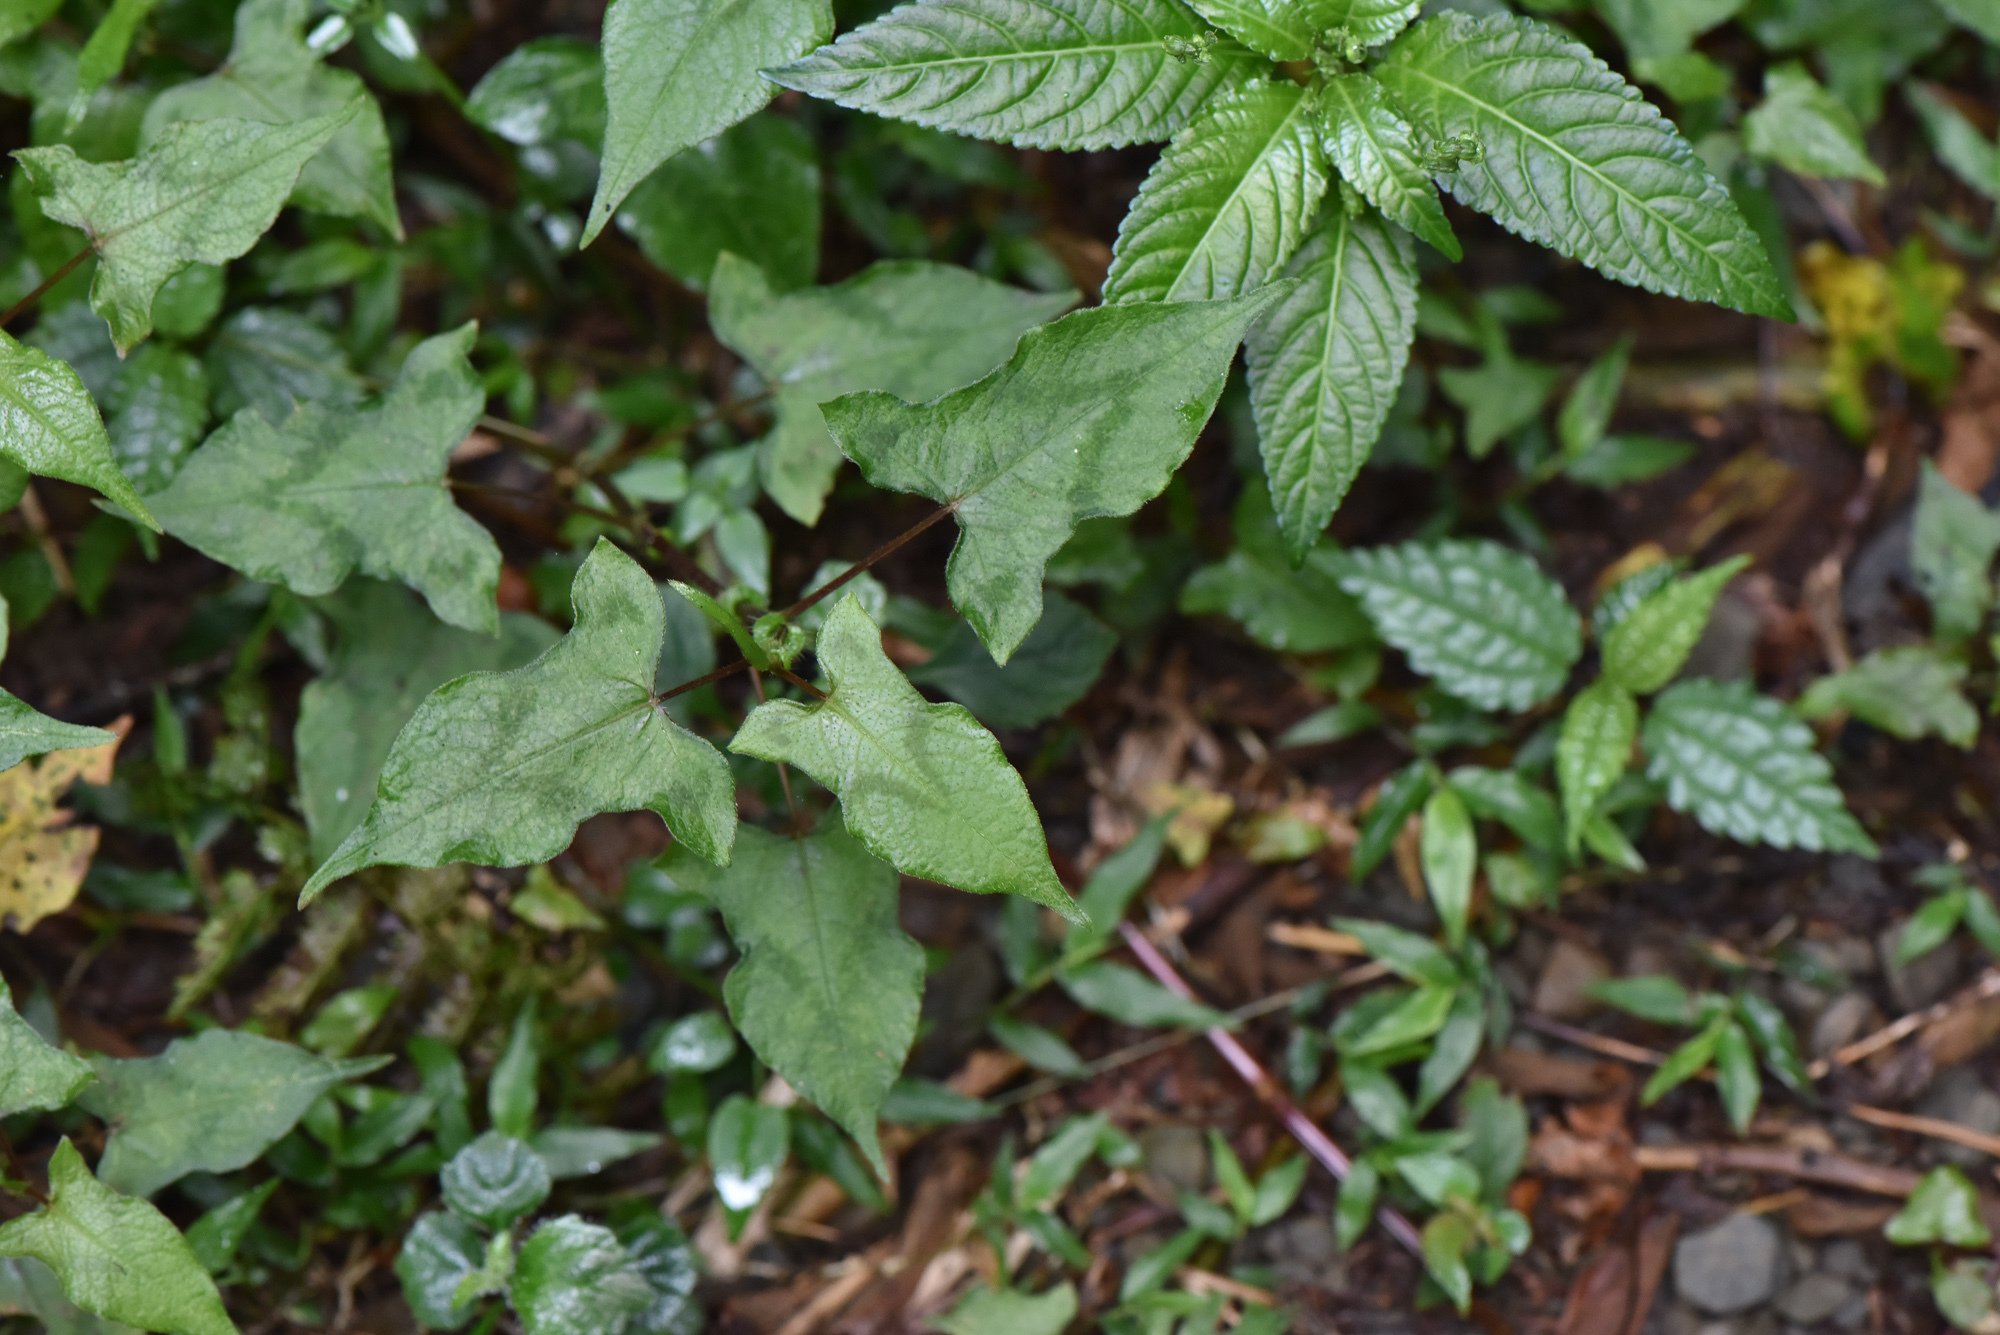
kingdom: Plantae
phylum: Tracheophyta
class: Magnoliopsida
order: Caryophyllales
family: Polygonaceae
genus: Persicaria
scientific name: Persicaria biconvexa
